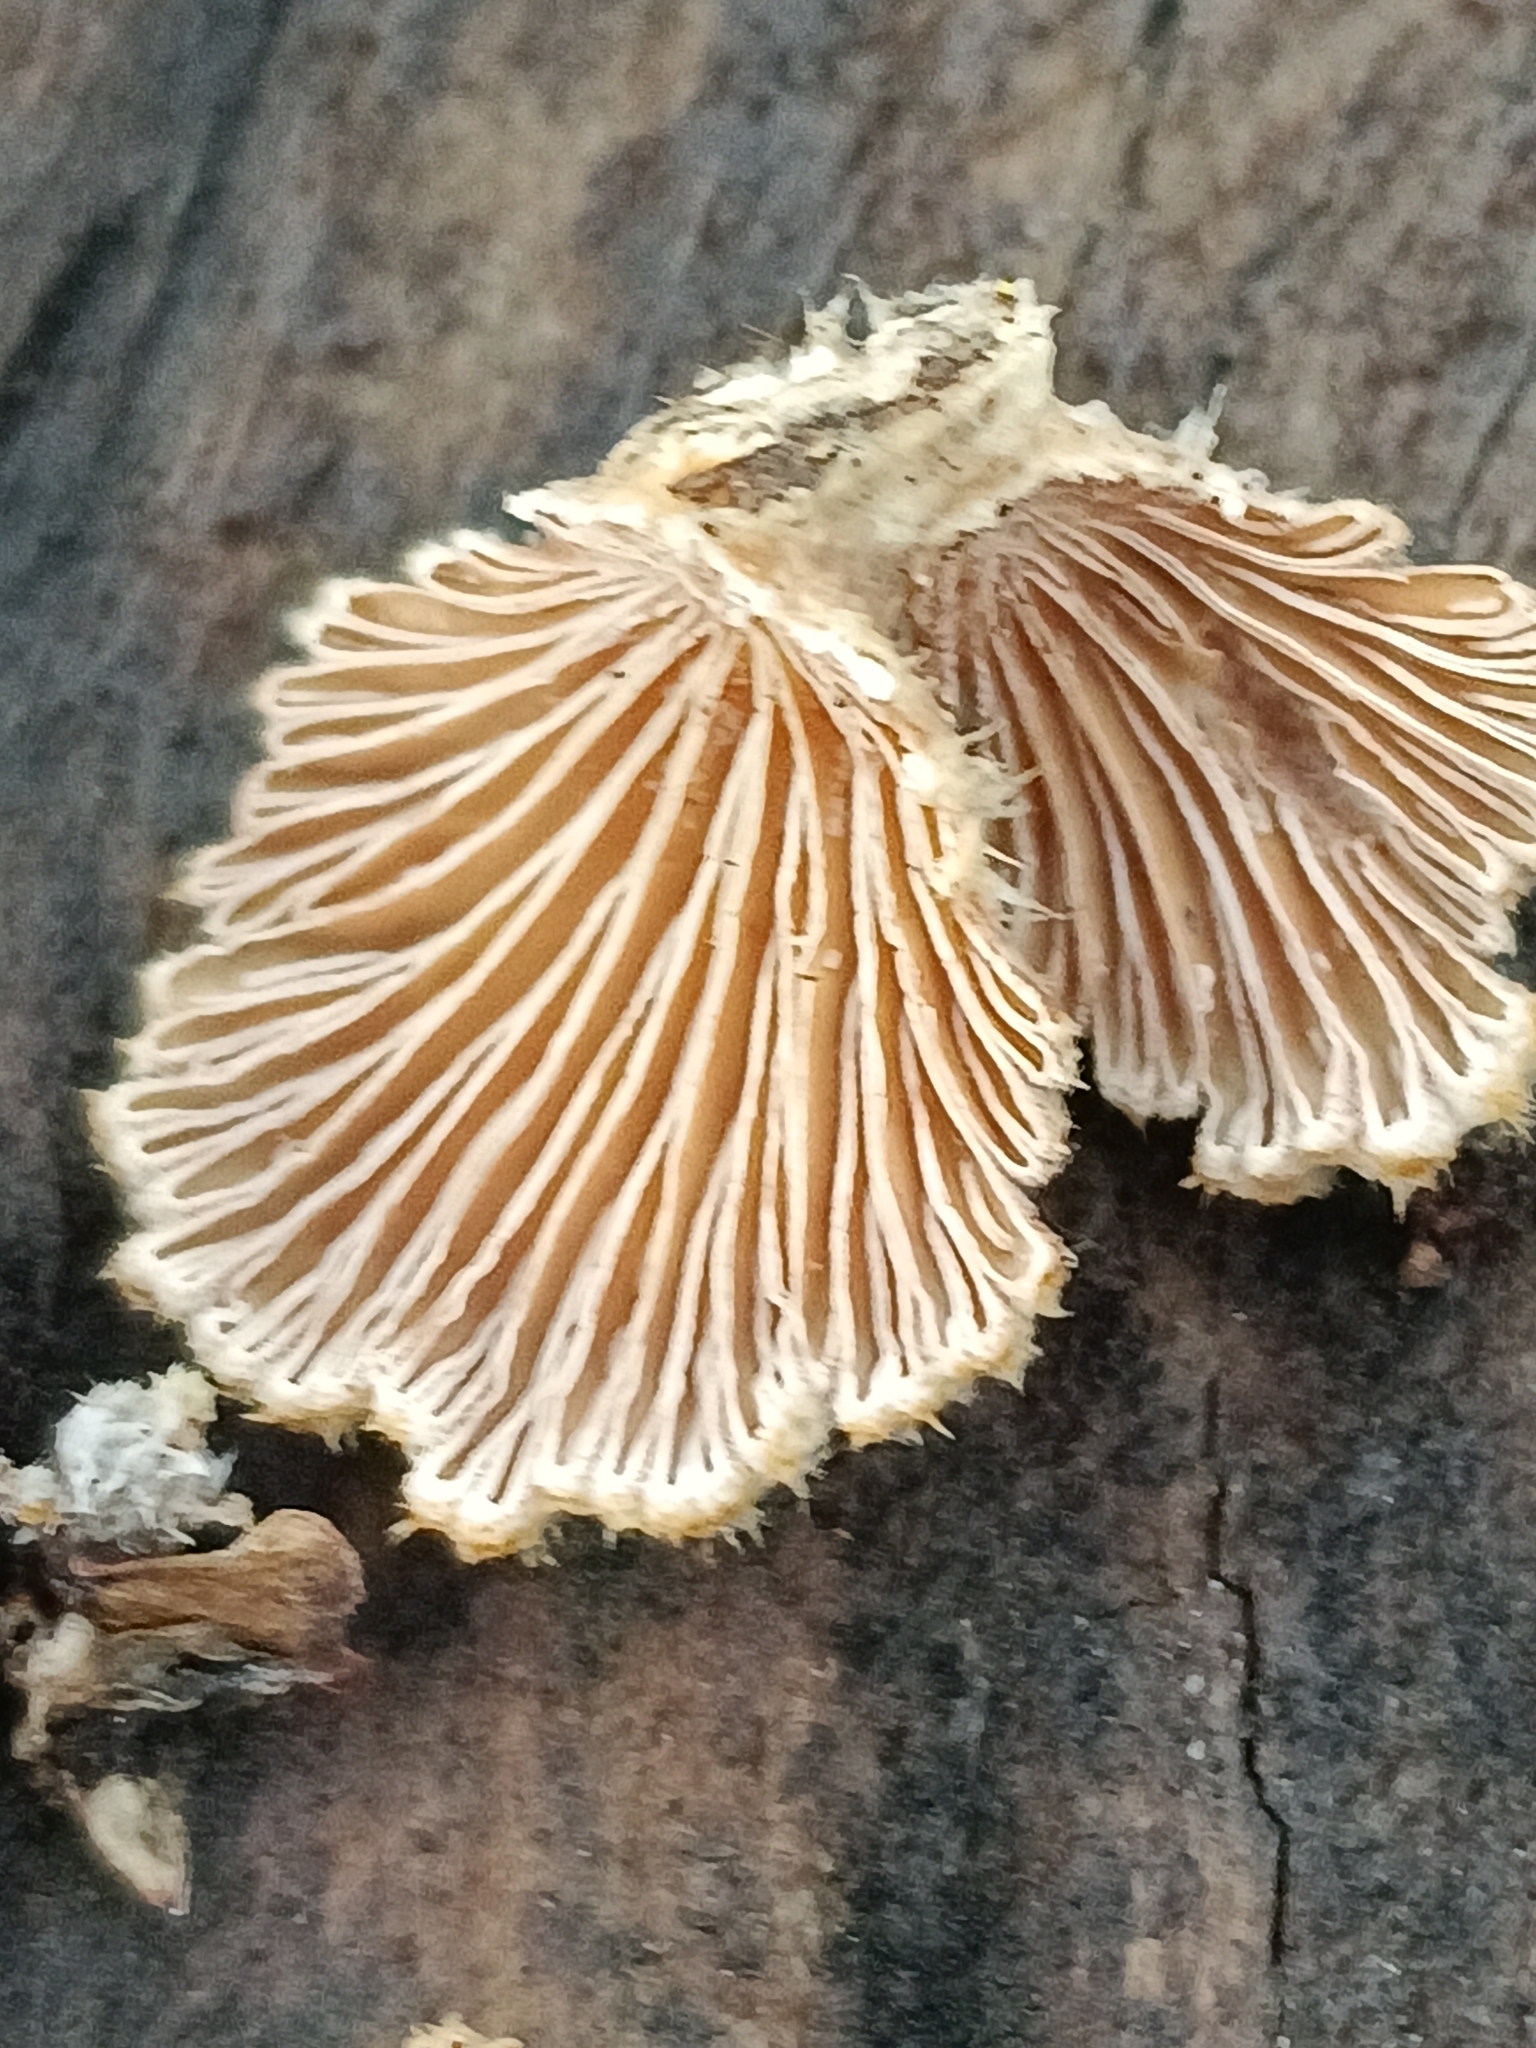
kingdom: Fungi
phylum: Basidiomycota
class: Agaricomycetes
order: Agaricales
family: Schizophyllaceae
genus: Schizophyllum
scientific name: Schizophyllum commune
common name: Common porecrust
